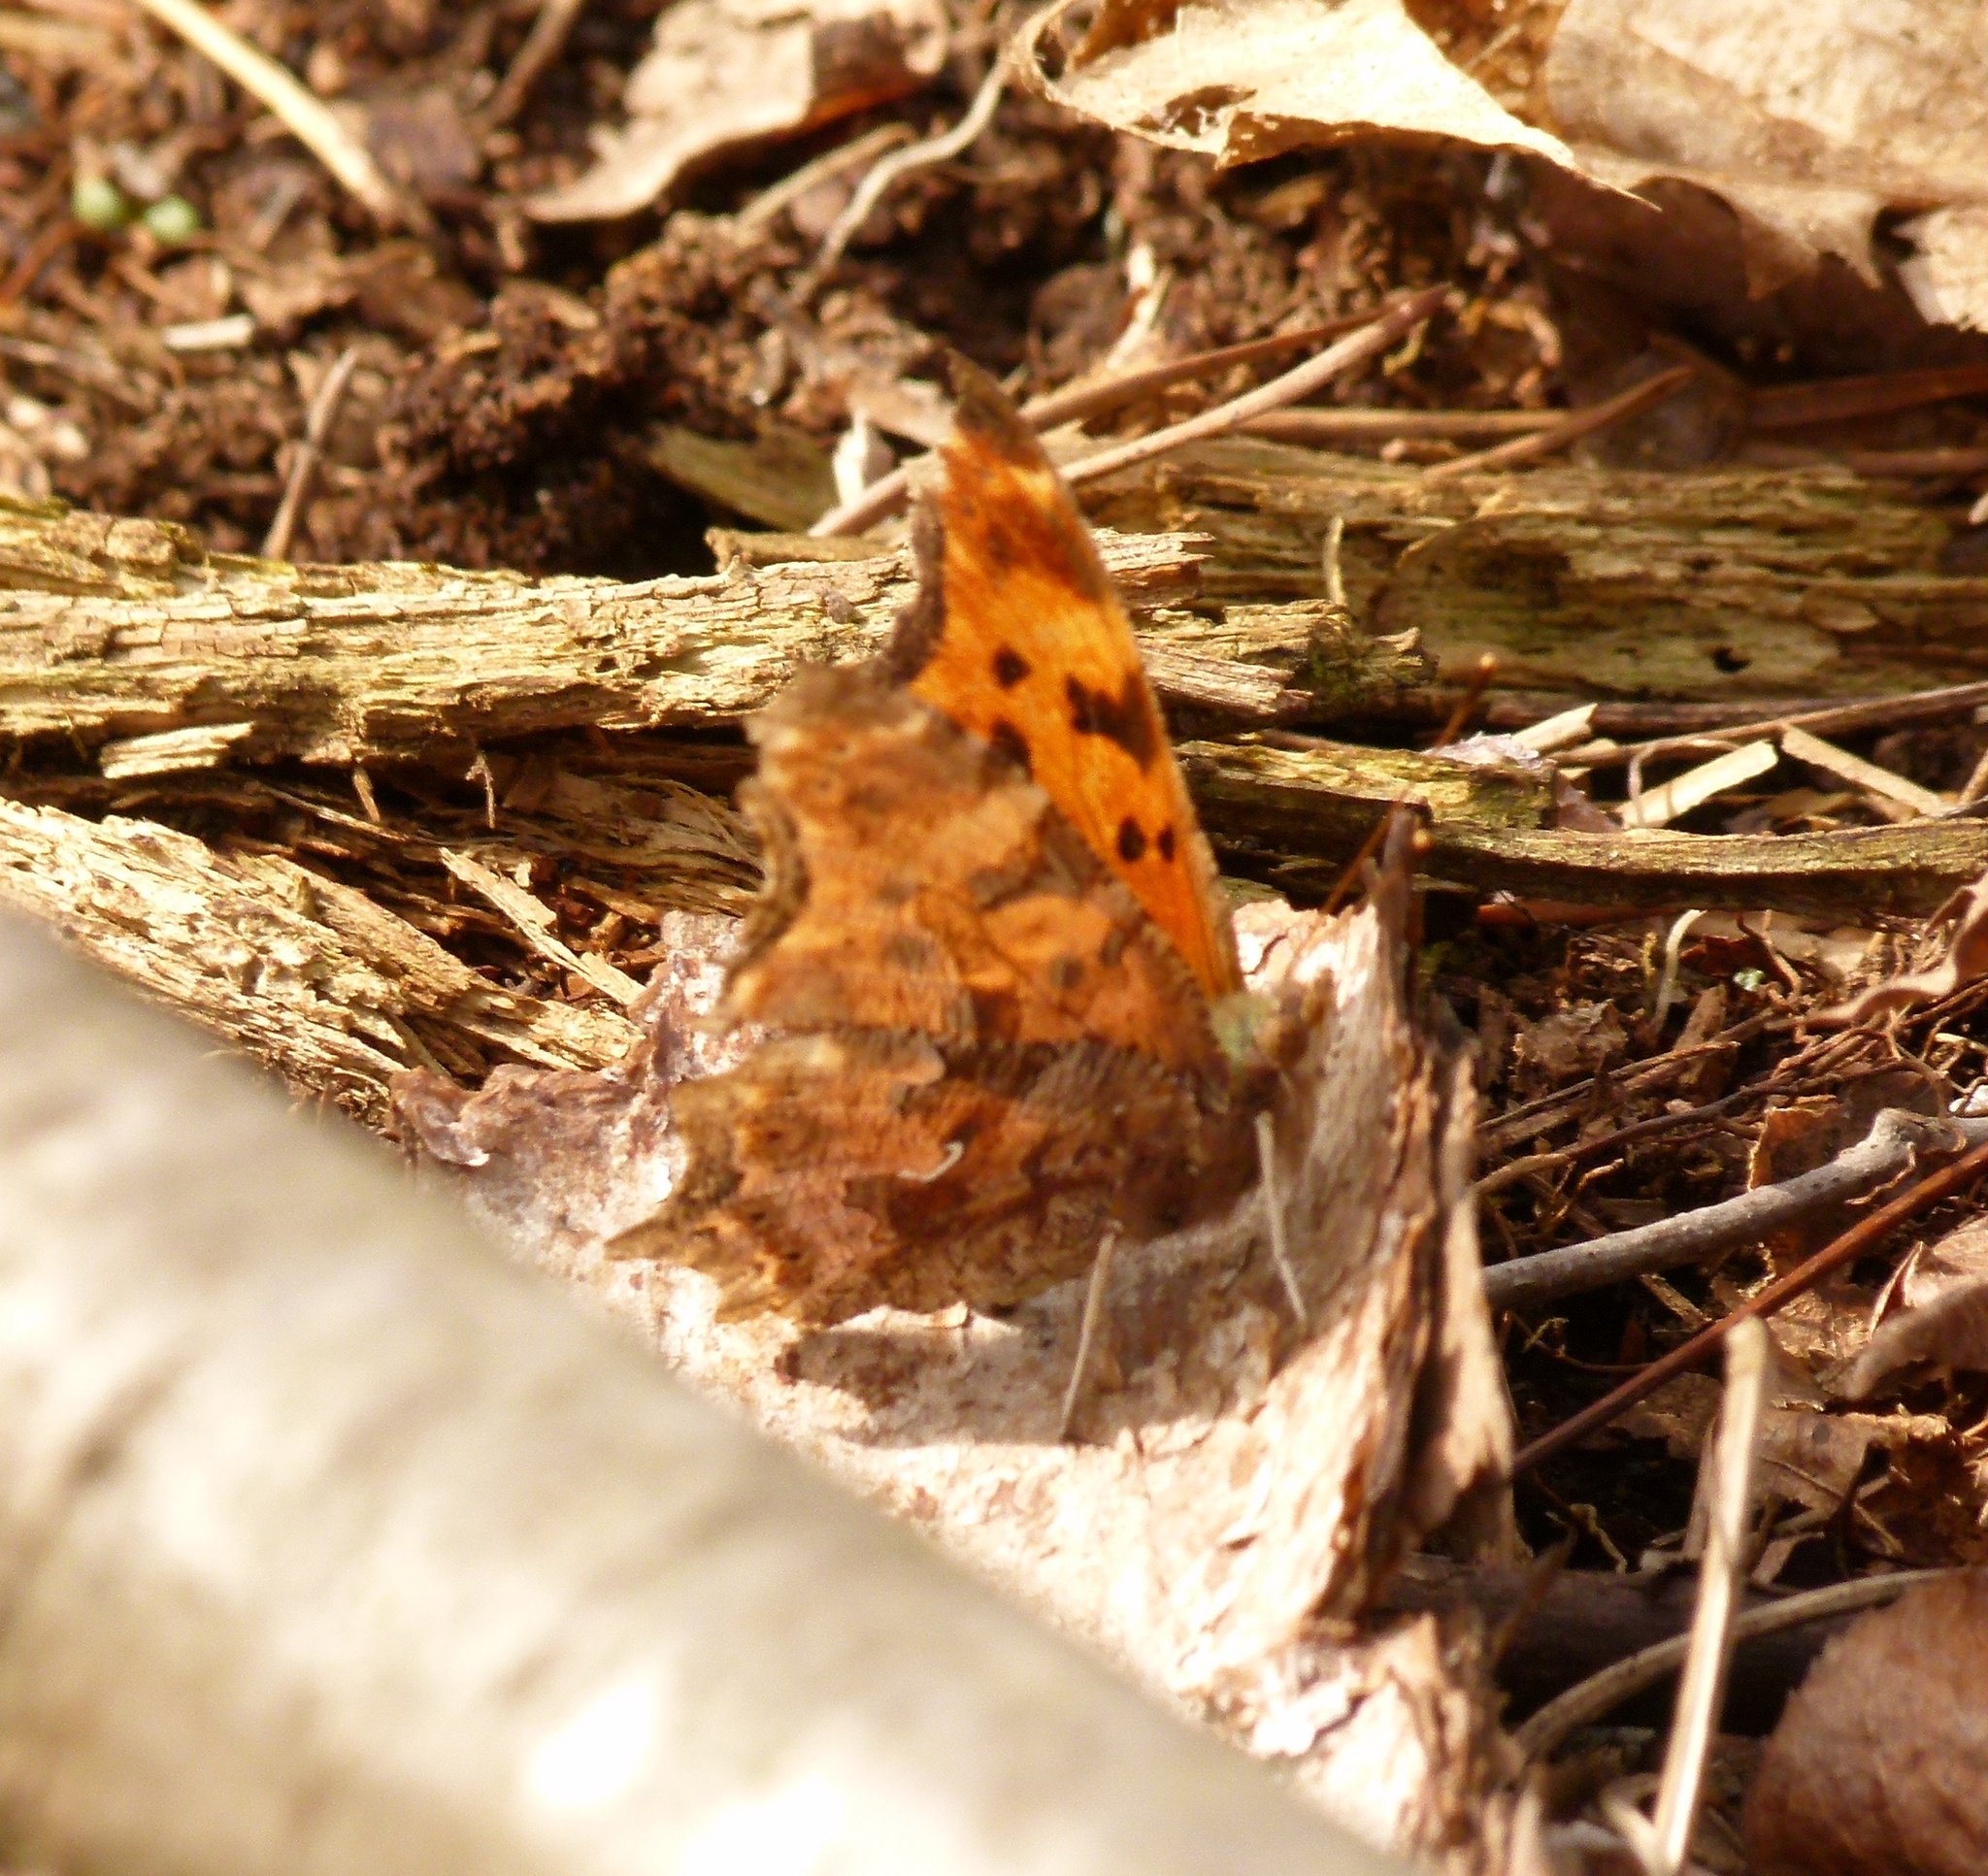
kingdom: Animalia
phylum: Arthropoda
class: Insecta
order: Lepidoptera
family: Nymphalidae
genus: Polygonia
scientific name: Polygonia comma
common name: Eastern comma
